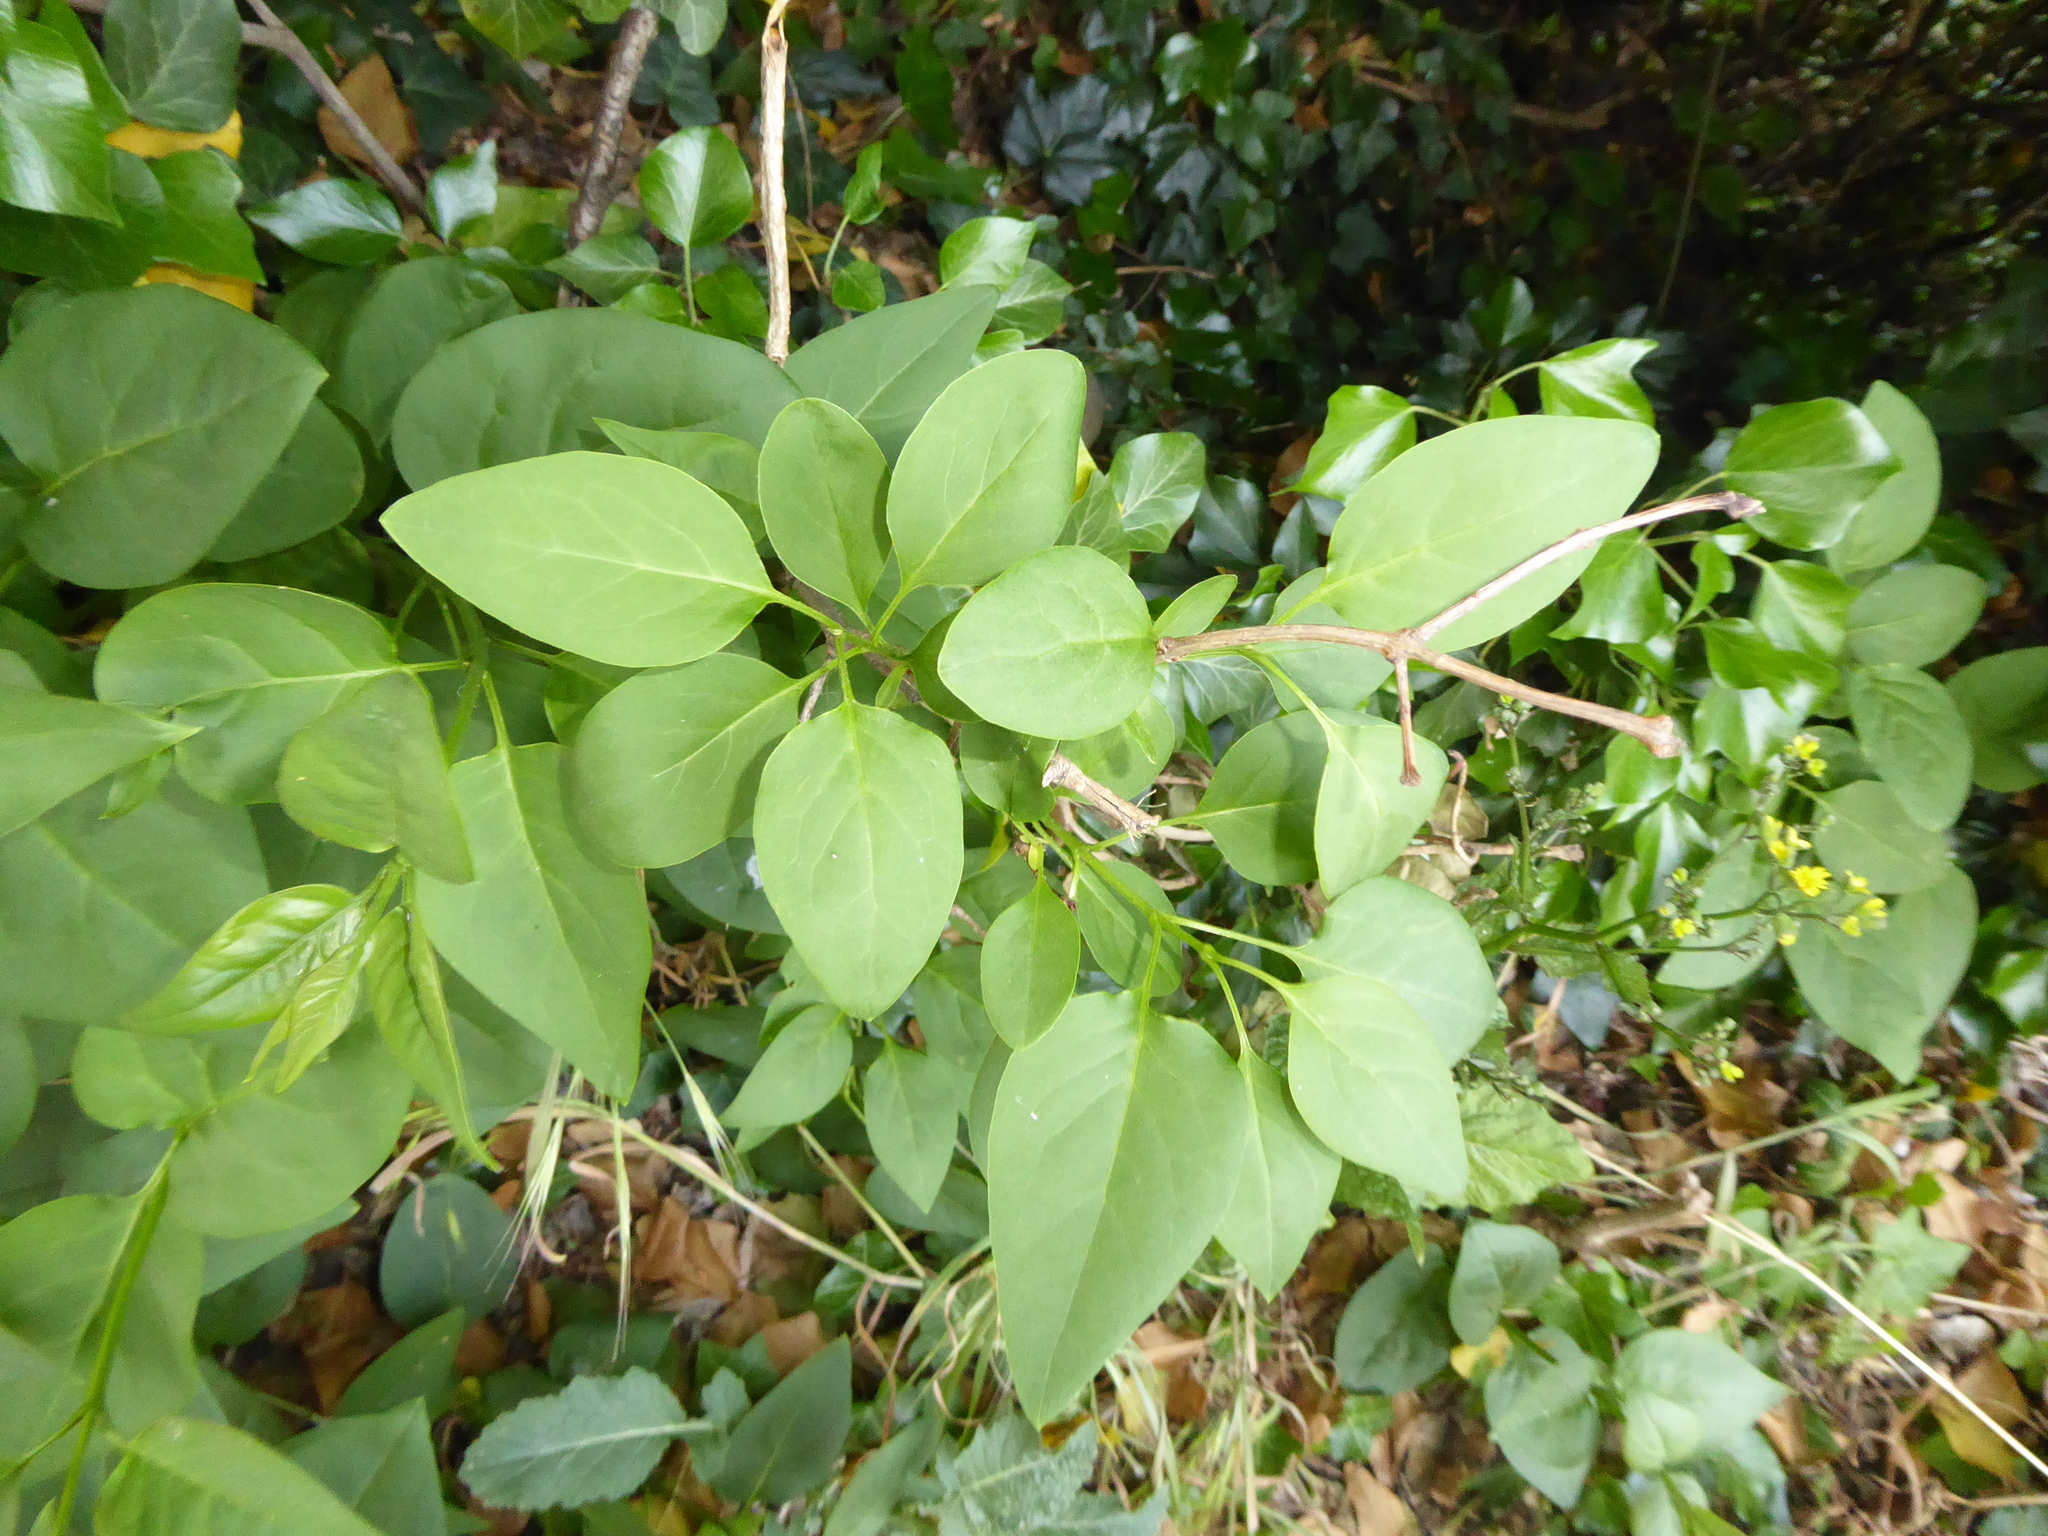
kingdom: Plantae
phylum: Tracheophyta
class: Magnoliopsida
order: Lamiales
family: Oleaceae
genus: Syringa
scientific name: Syringa vulgaris
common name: Common lilac
